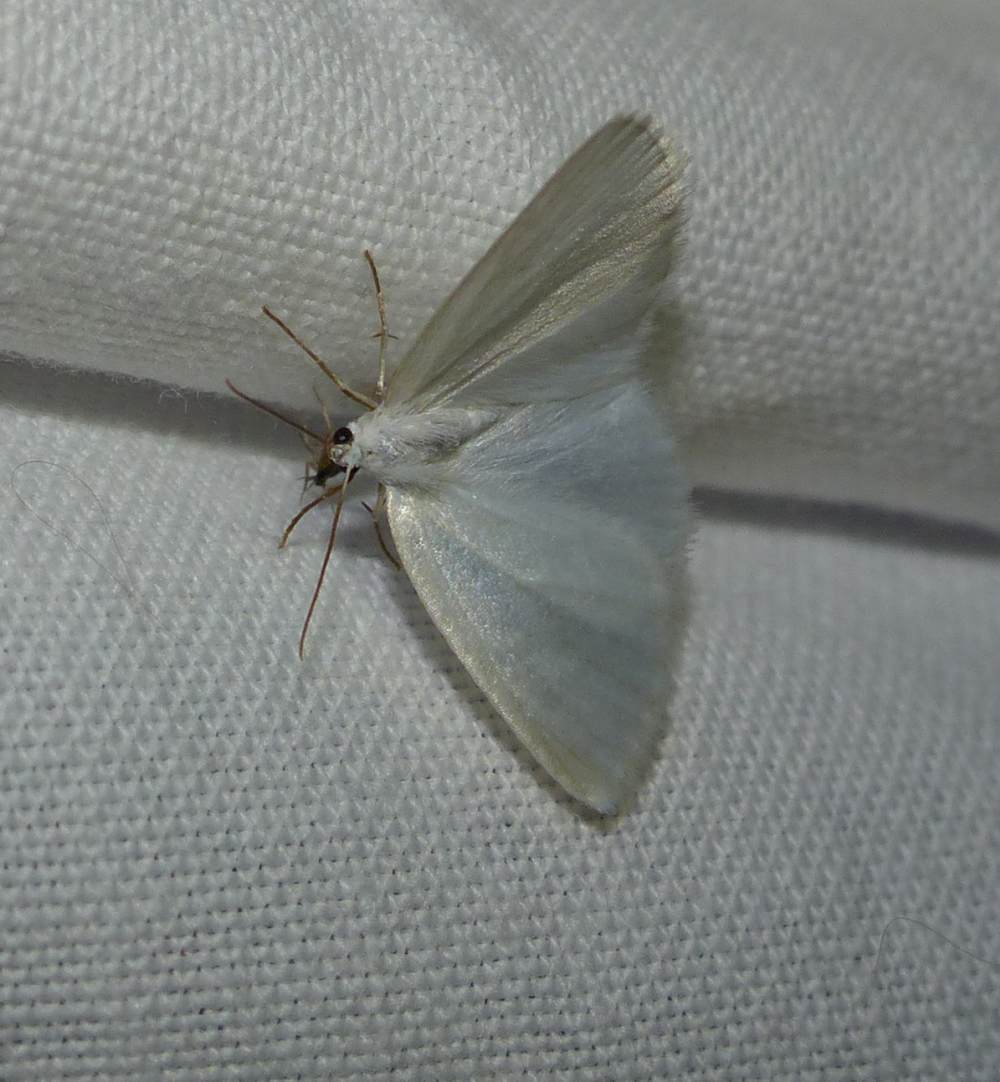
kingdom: Animalia
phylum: Arthropoda
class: Insecta
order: Lepidoptera
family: Geometridae
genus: Lomographa
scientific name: Lomographa vestaliata
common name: White spring moth
